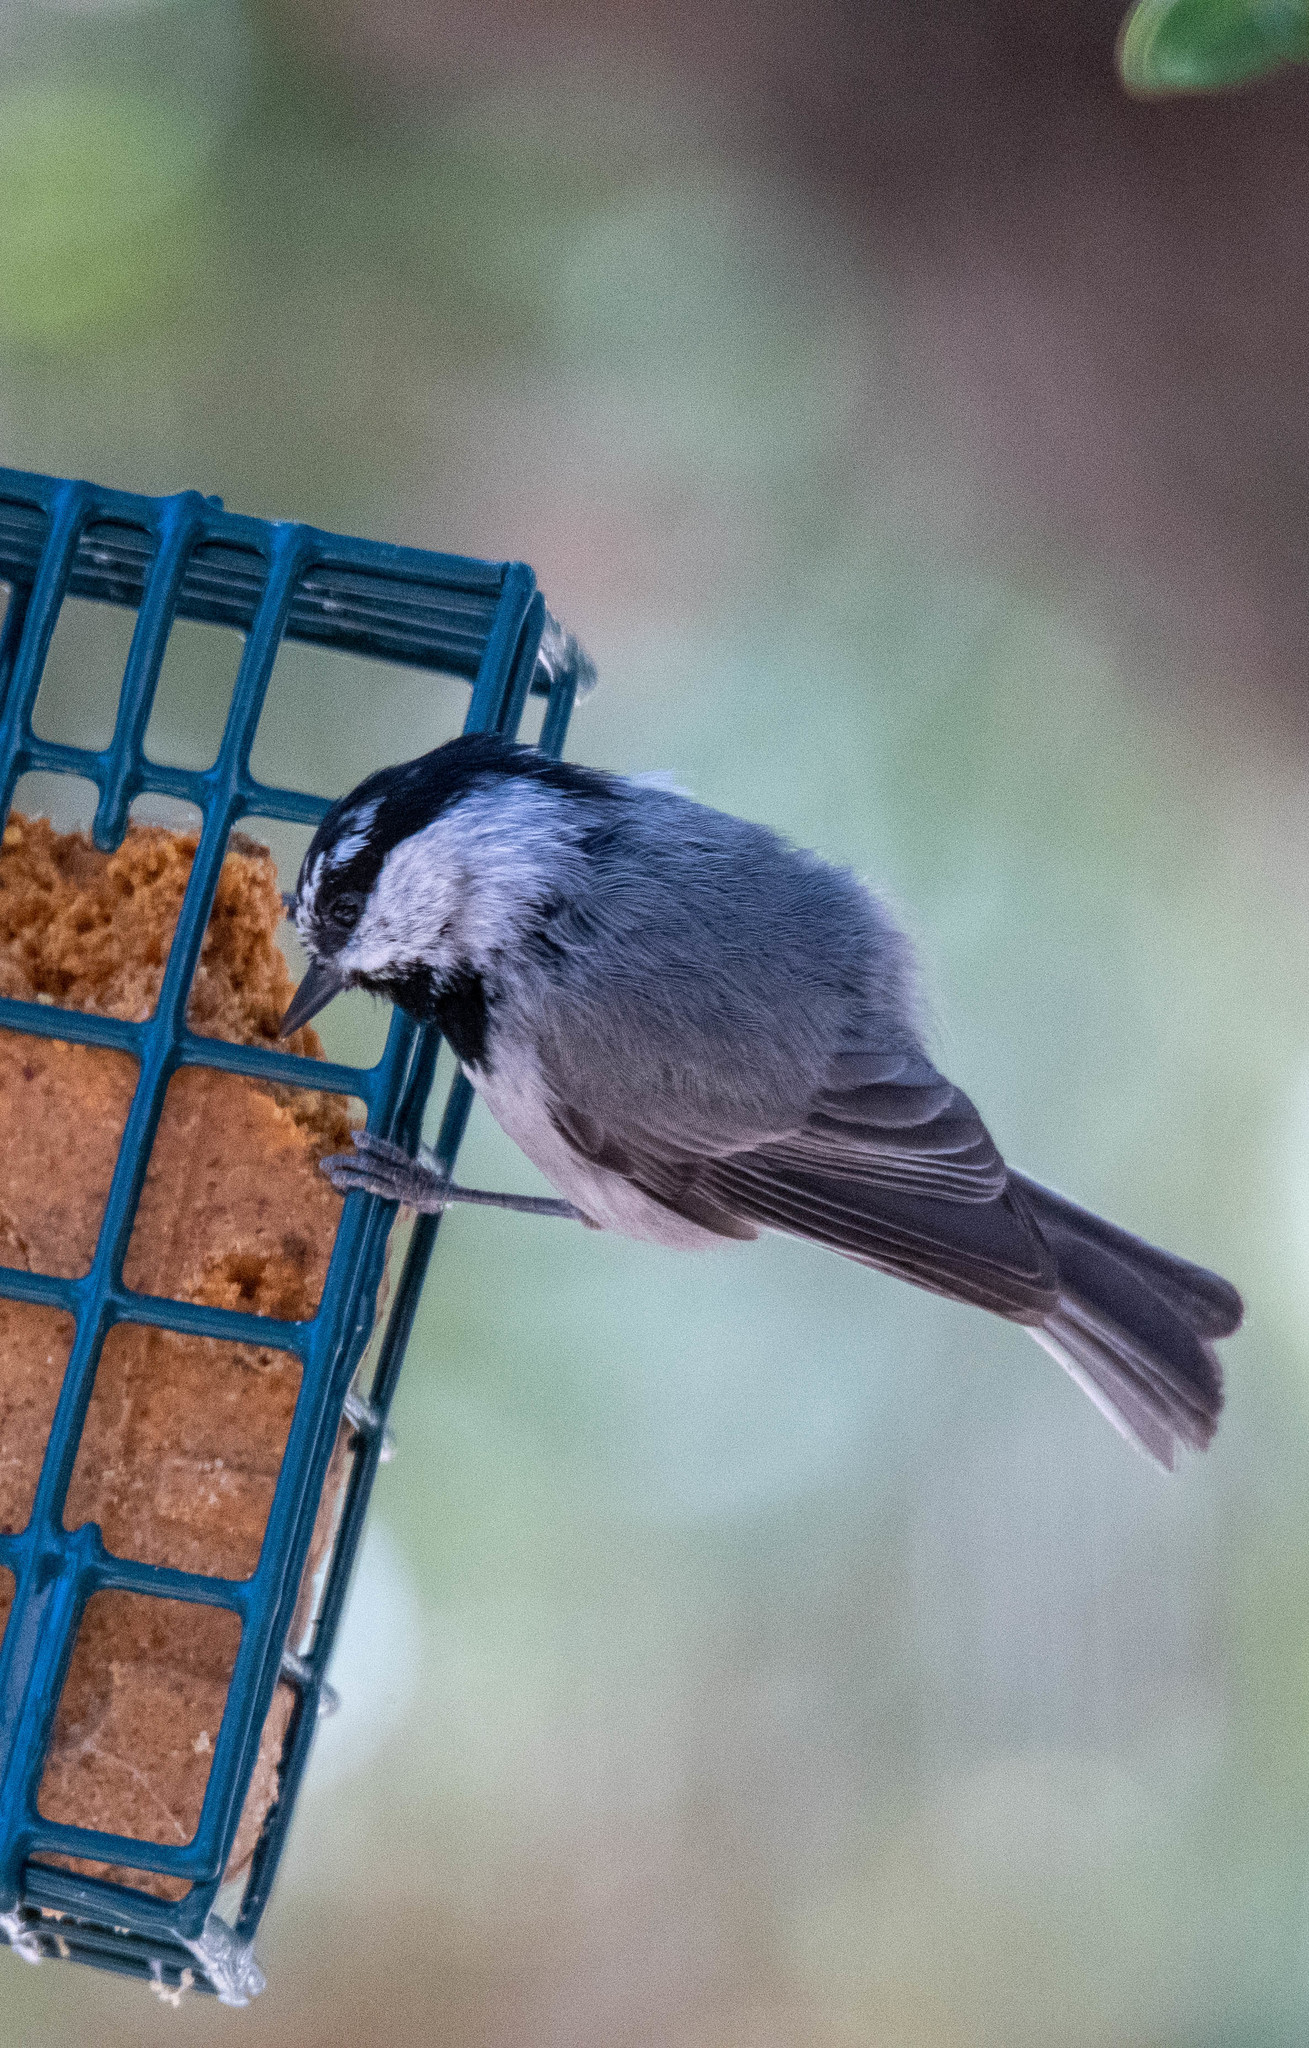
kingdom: Animalia
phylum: Chordata
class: Aves
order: Passeriformes
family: Paridae
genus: Poecile
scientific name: Poecile gambeli
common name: Mountain chickadee
